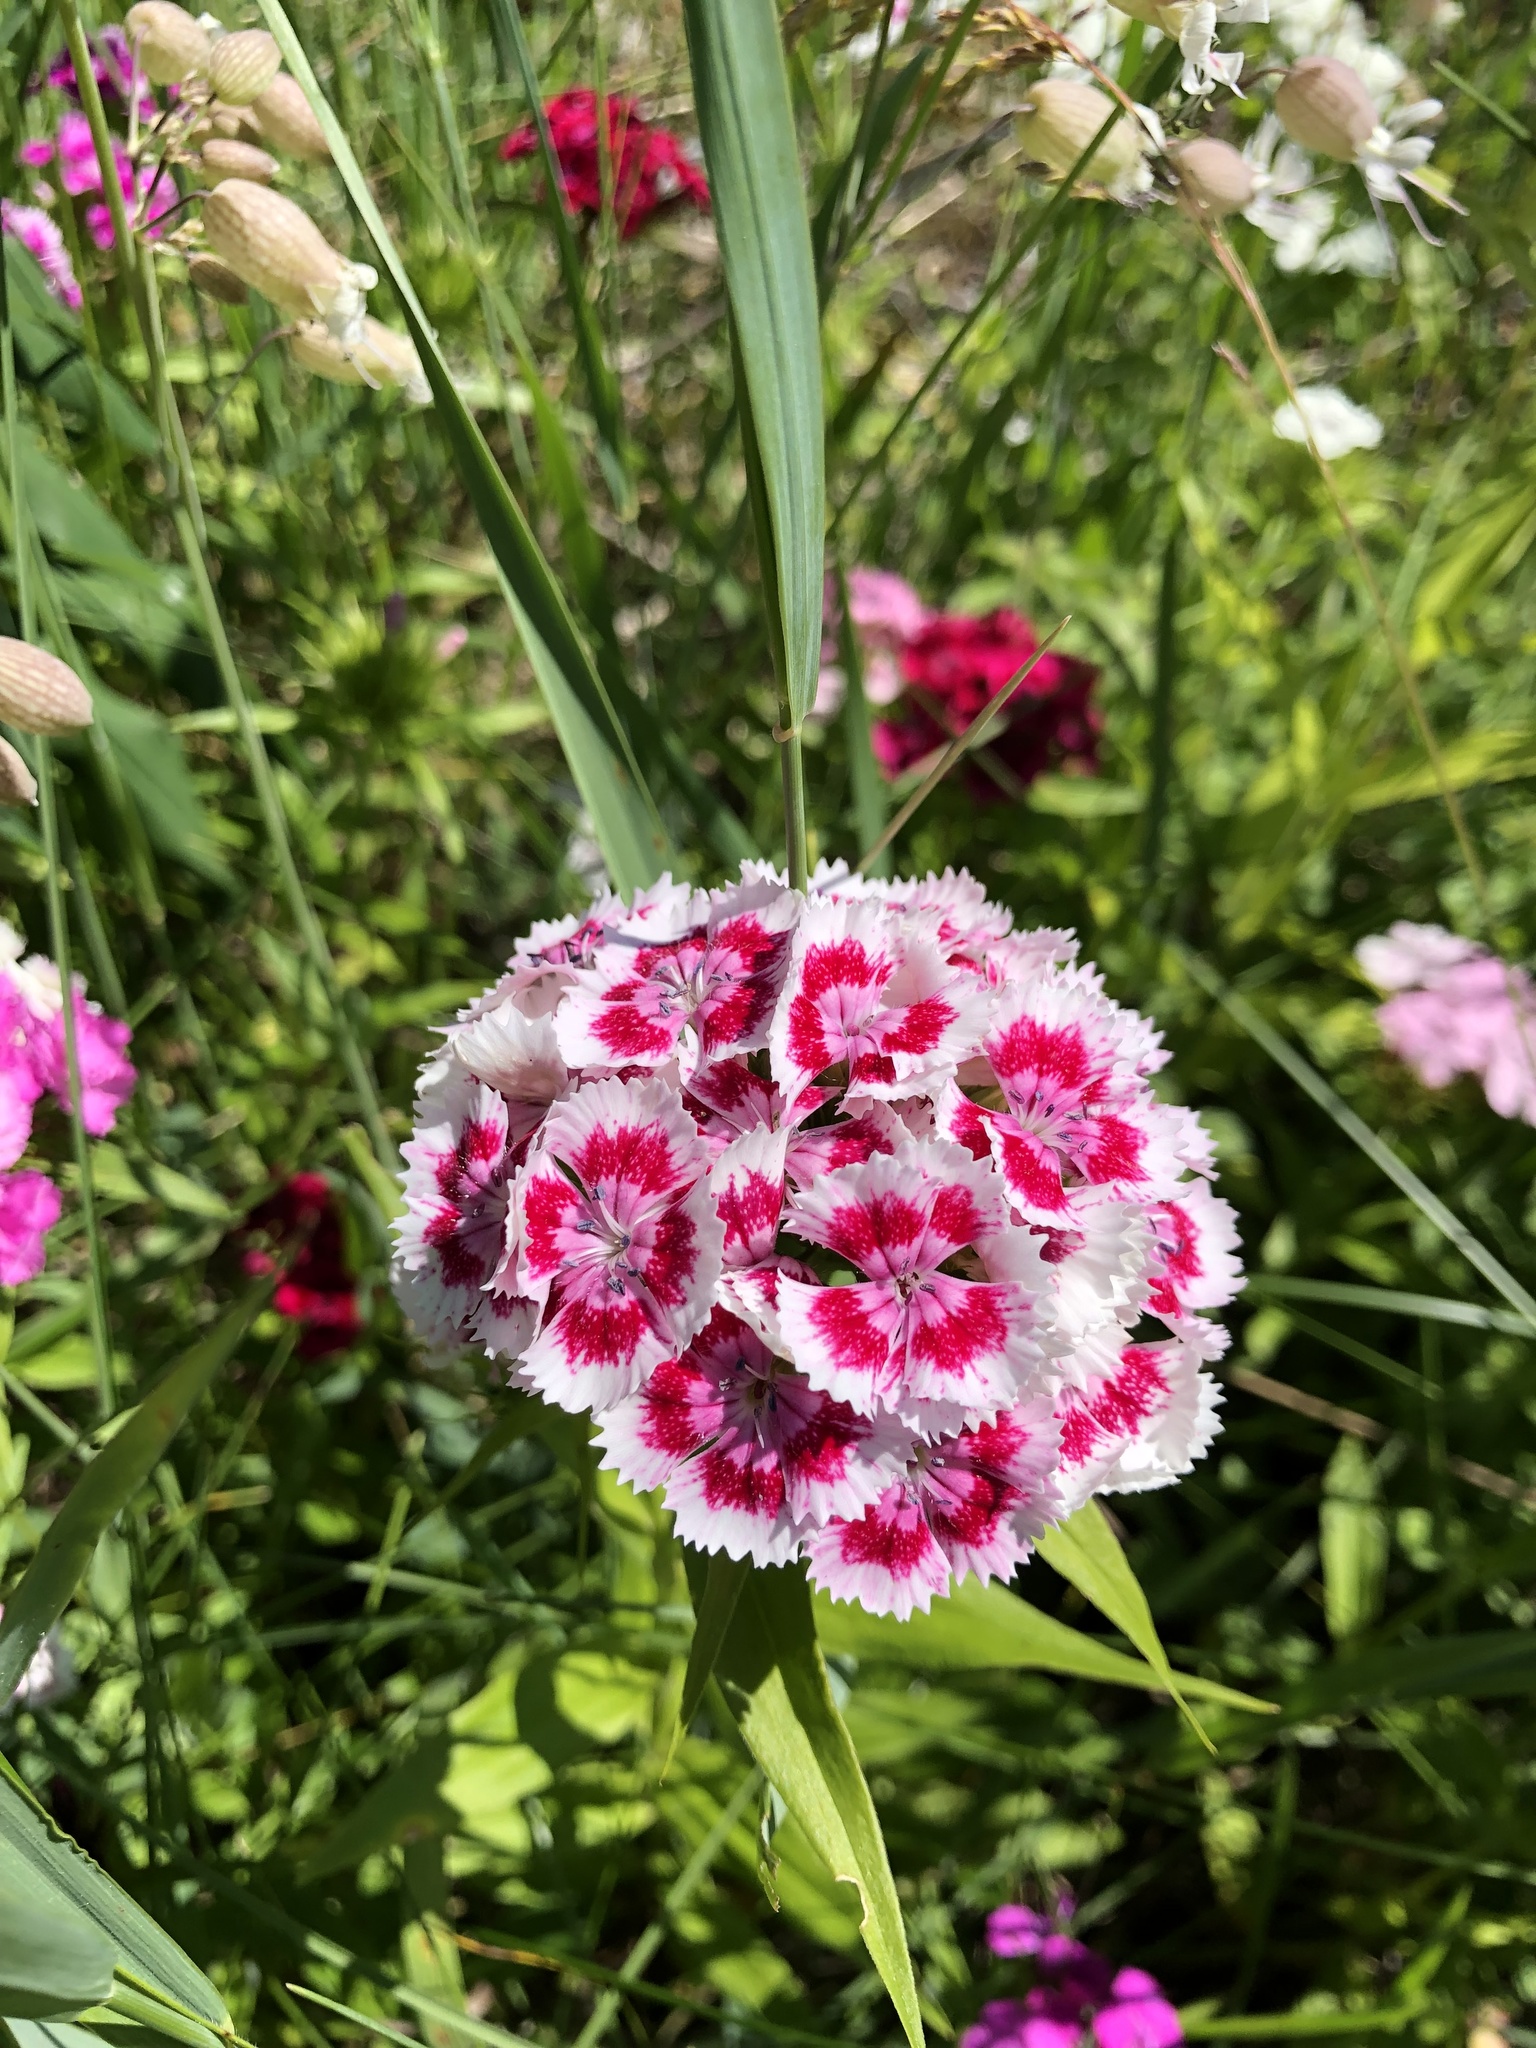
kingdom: Plantae
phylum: Tracheophyta
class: Magnoliopsida
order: Caryophyllales
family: Caryophyllaceae
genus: Dianthus
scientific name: Dianthus barbatus
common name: Sweet-william
